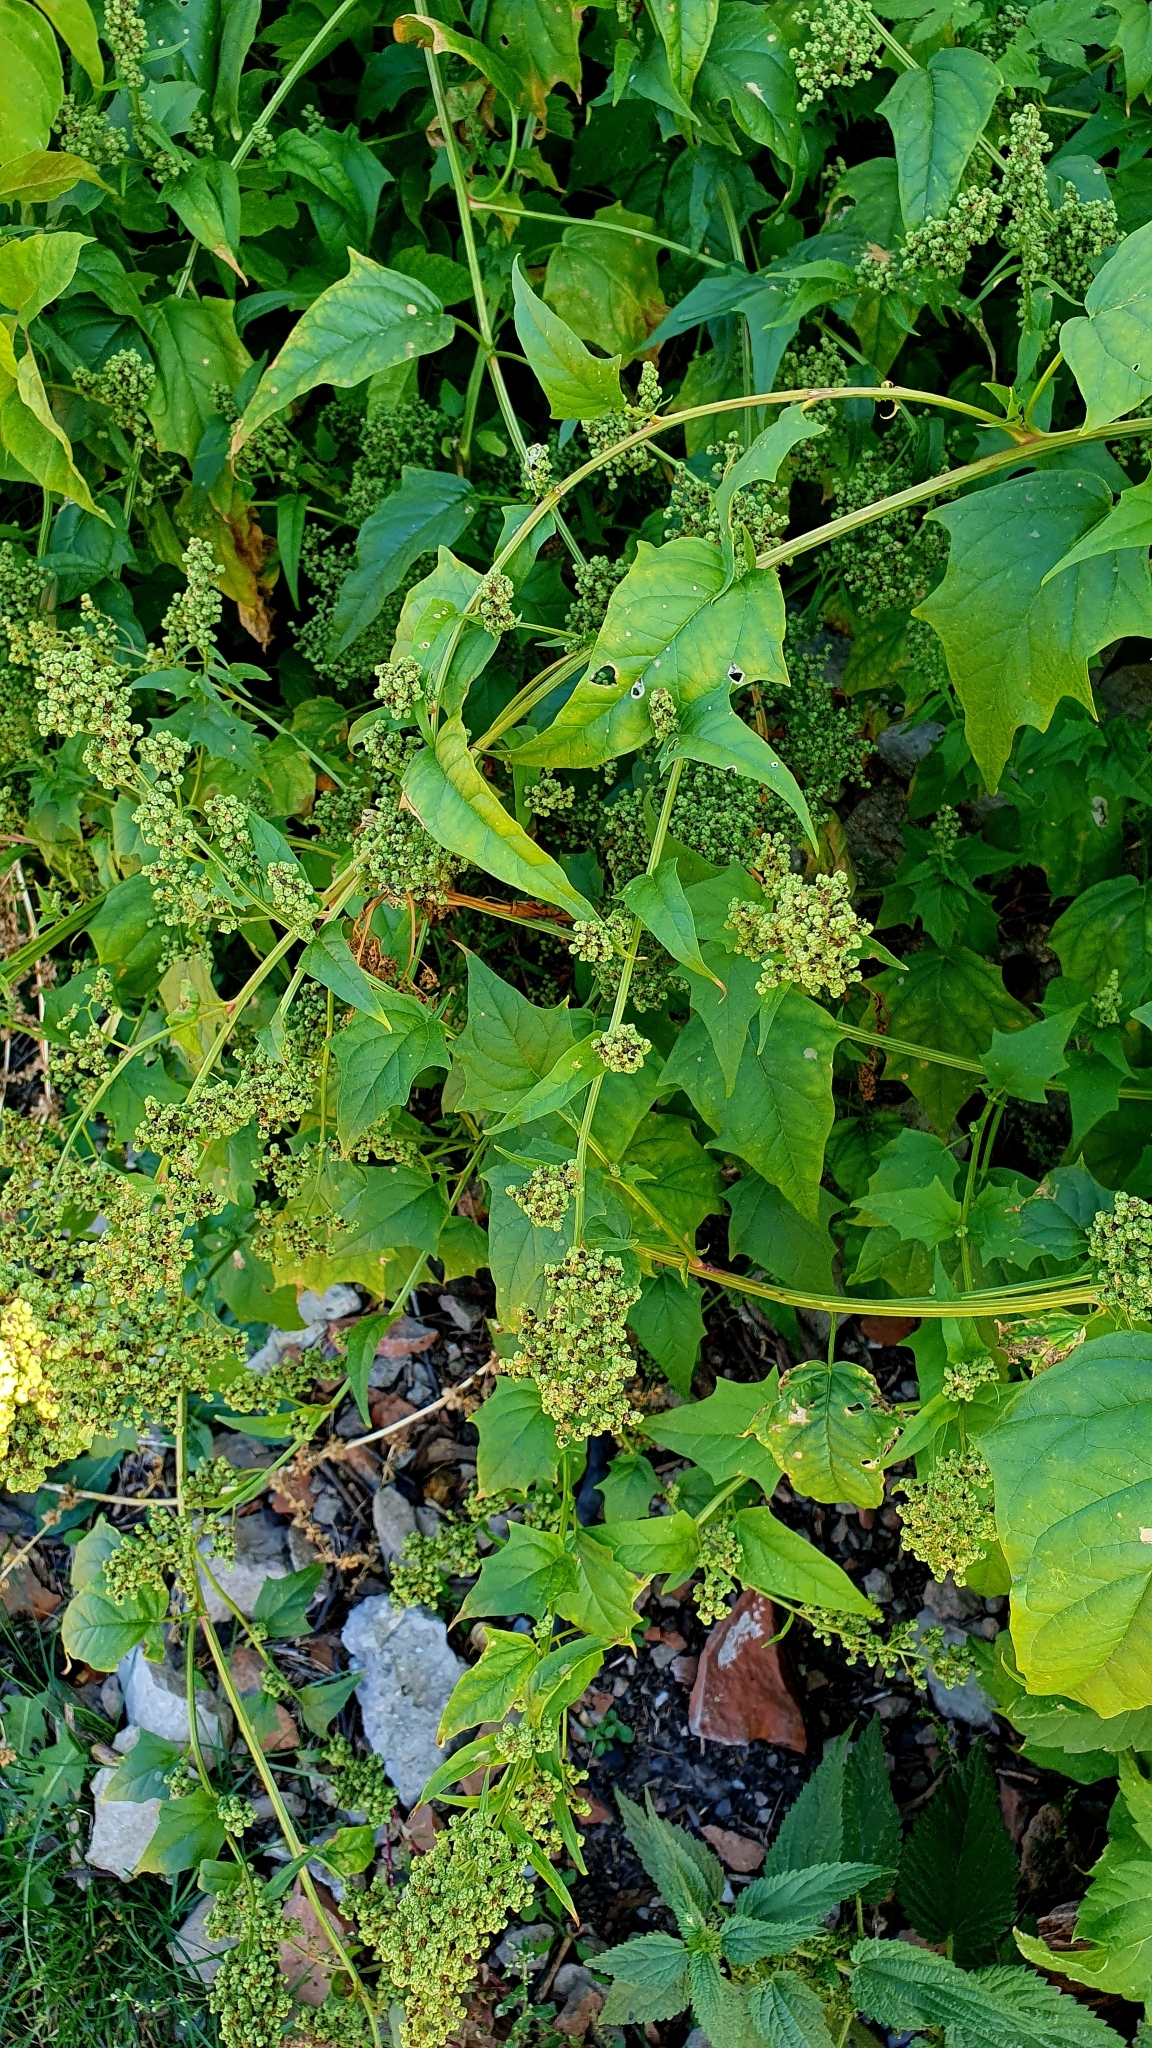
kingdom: Plantae
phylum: Tracheophyta
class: Magnoliopsida
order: Caryophyllales
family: Amaranthaceae
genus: Chenopodiastrum
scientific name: Chenopodiastrum hybridum
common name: Mapleleaf goosefoot
